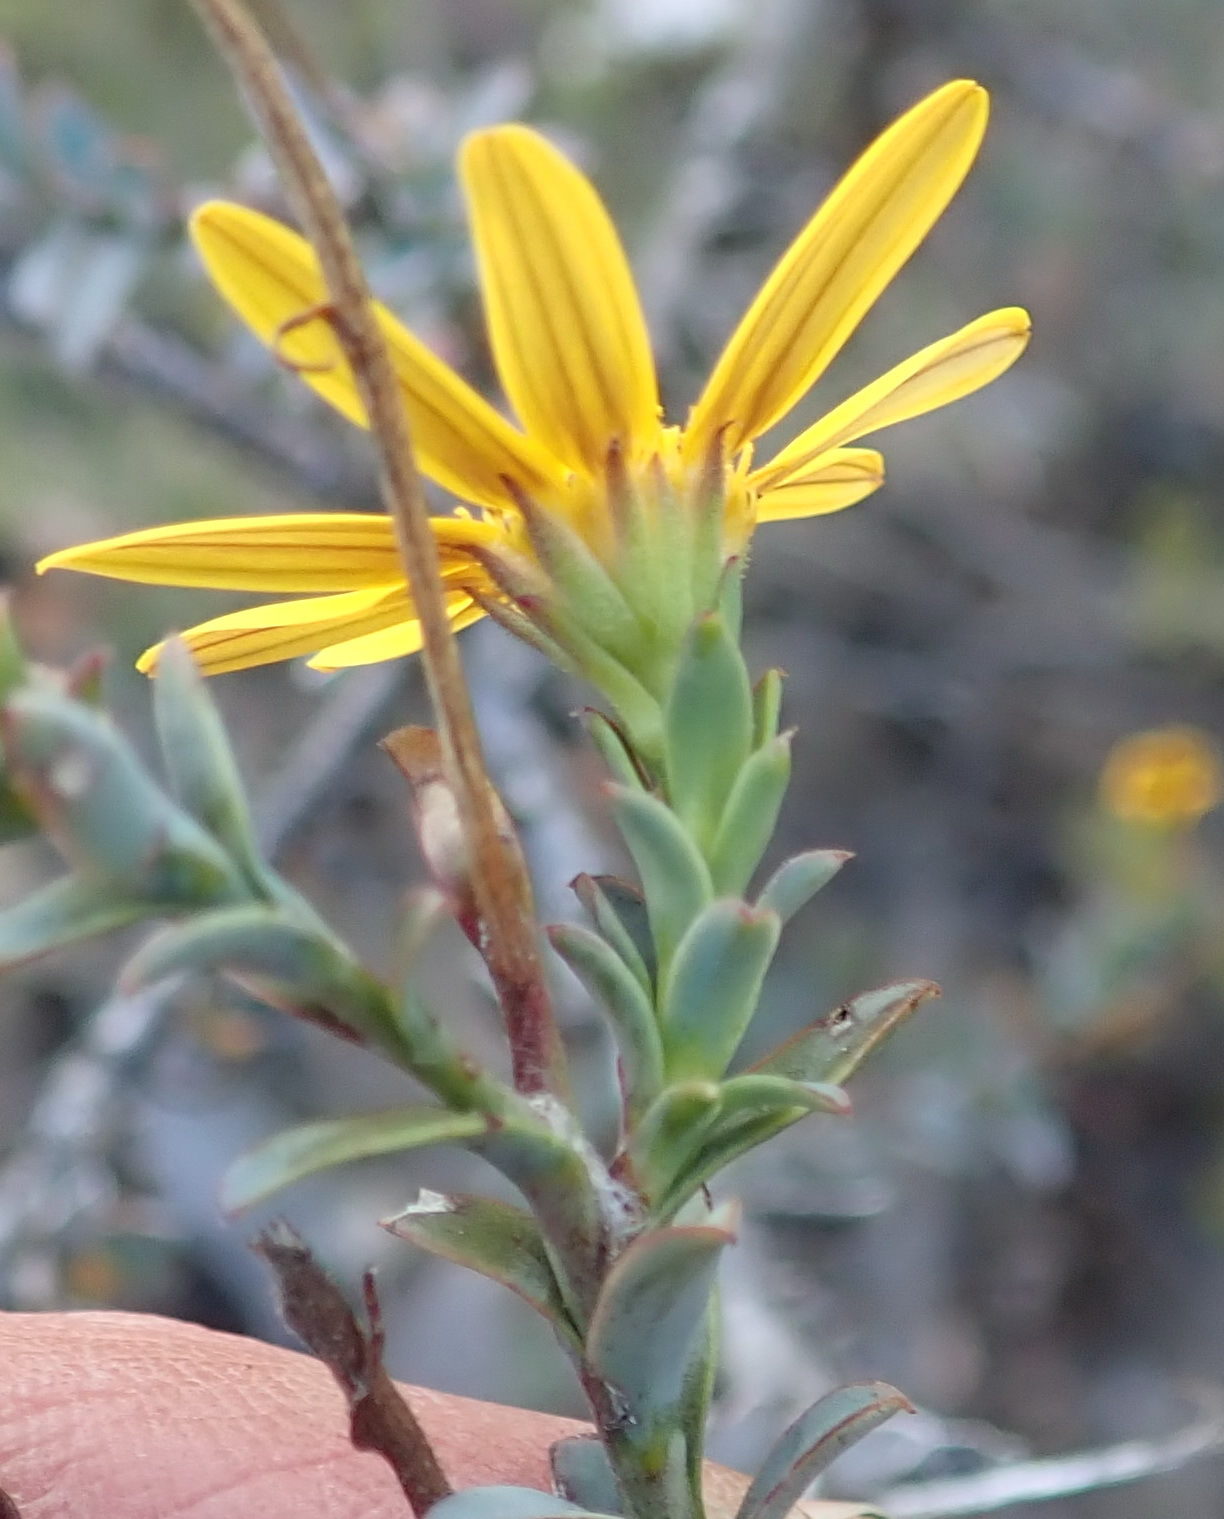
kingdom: Plantae
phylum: Tracheophyta
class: Magnoliopsida
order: Asterales
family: Asteraceae
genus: Osteospermum
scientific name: Osteospermum polygaloides
